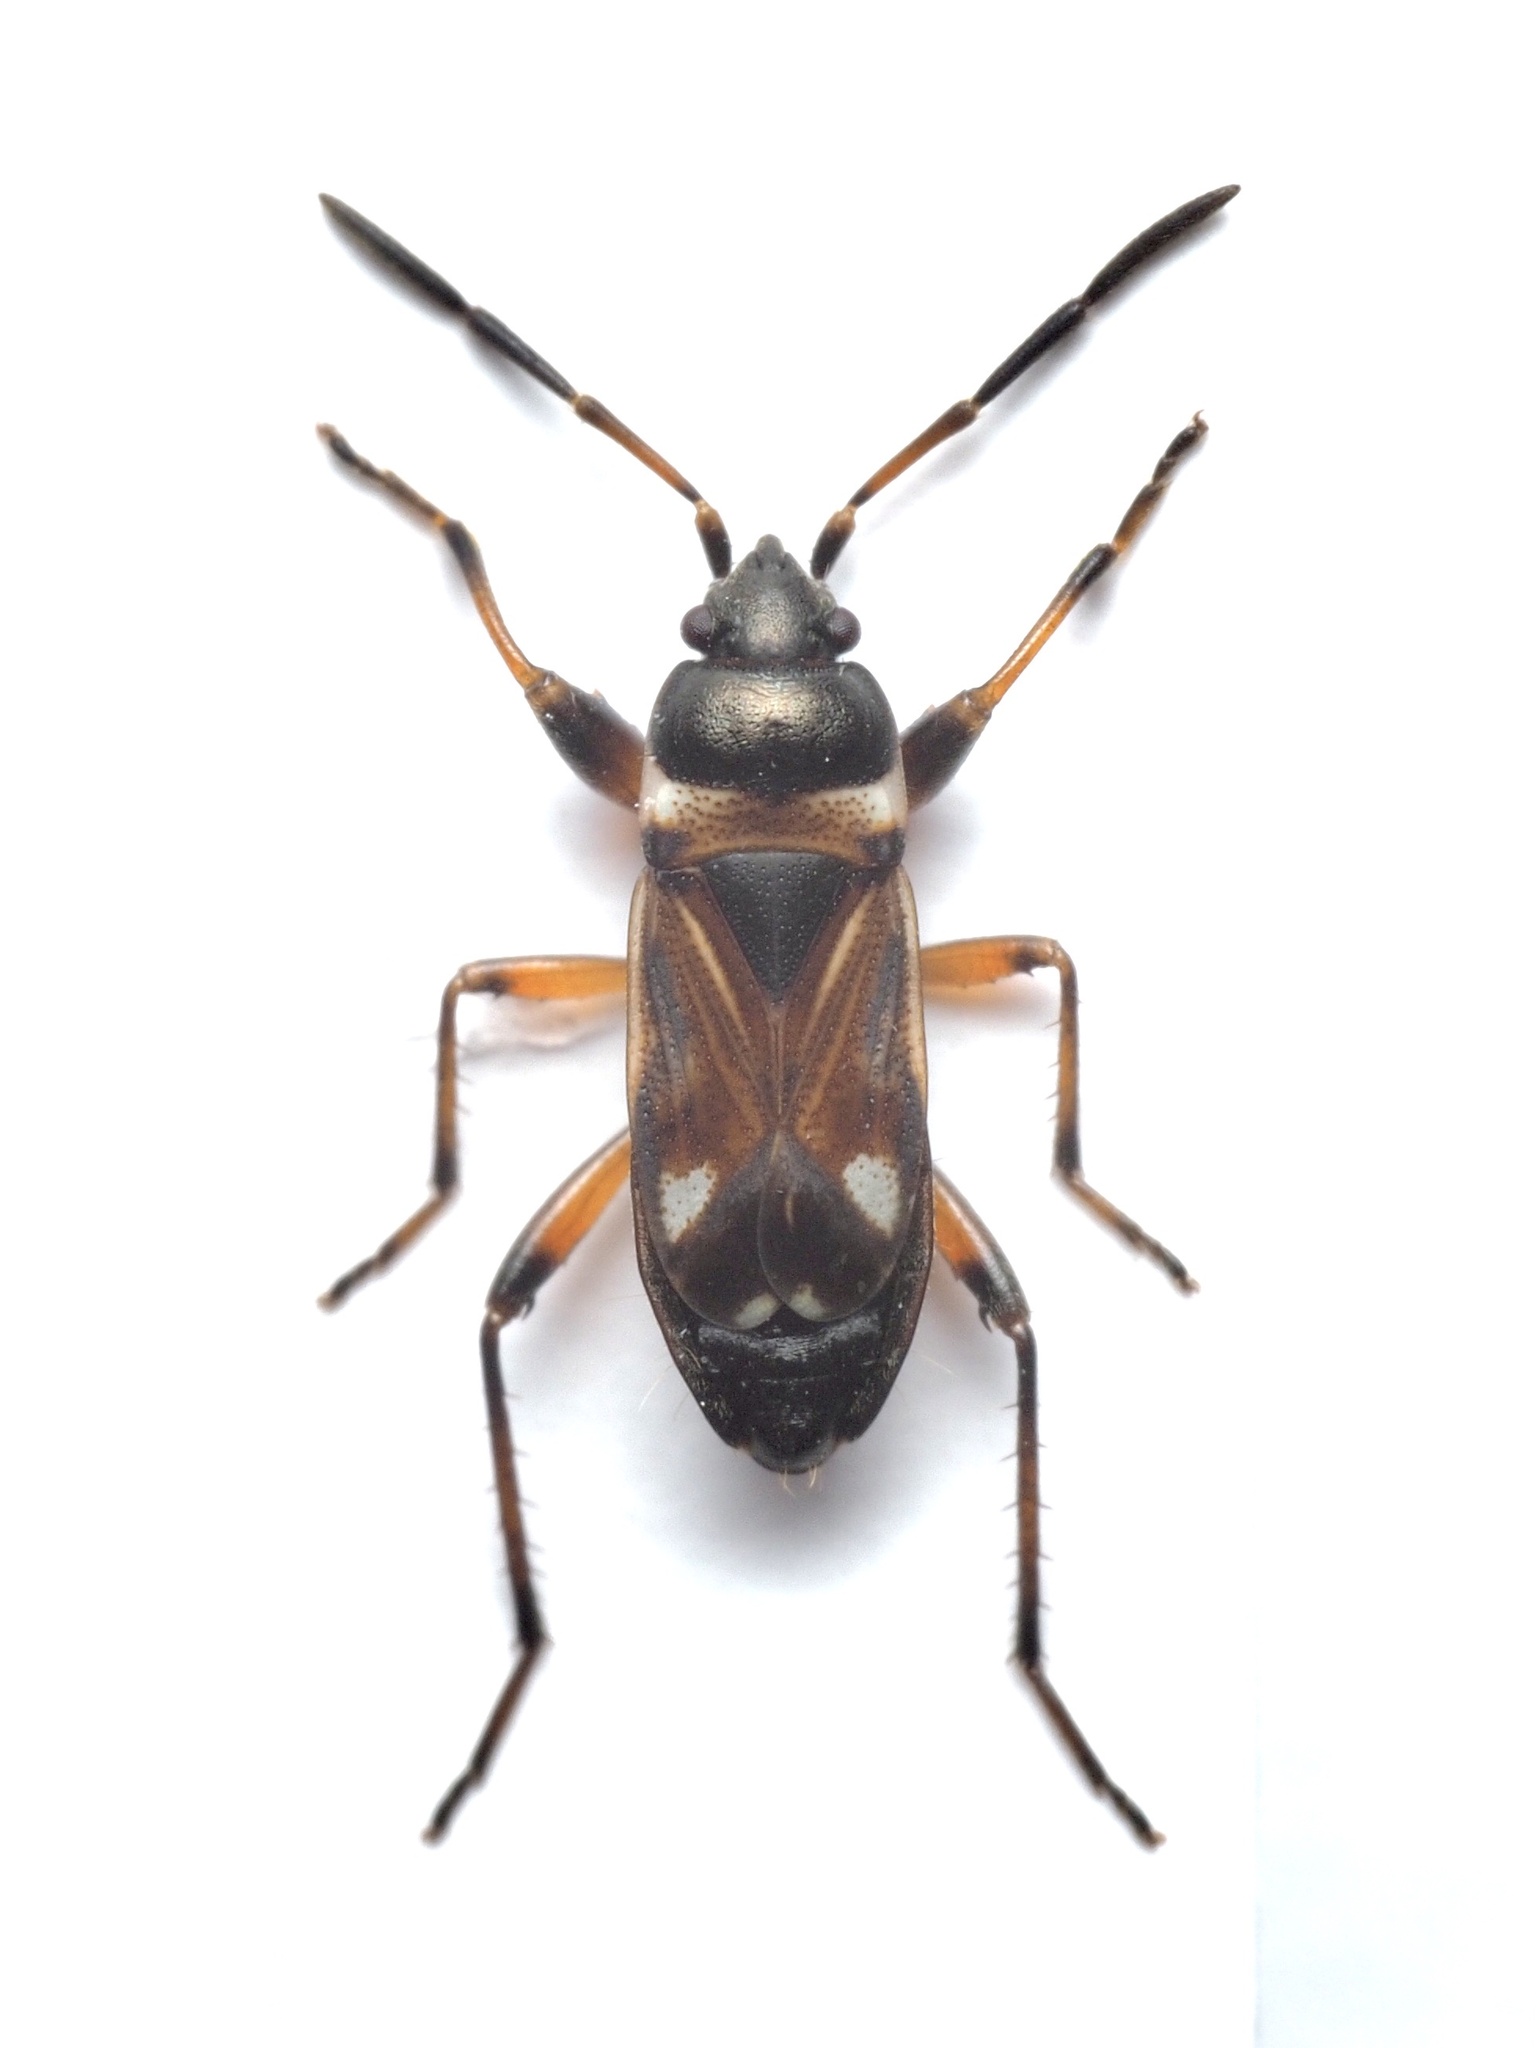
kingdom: Animalia
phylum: Arthropoda
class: Insecta
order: Hemiptera
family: Rhyparochromidae
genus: Raglius
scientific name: Raglius alboacuminatus
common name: Dirt-colored seed bug
